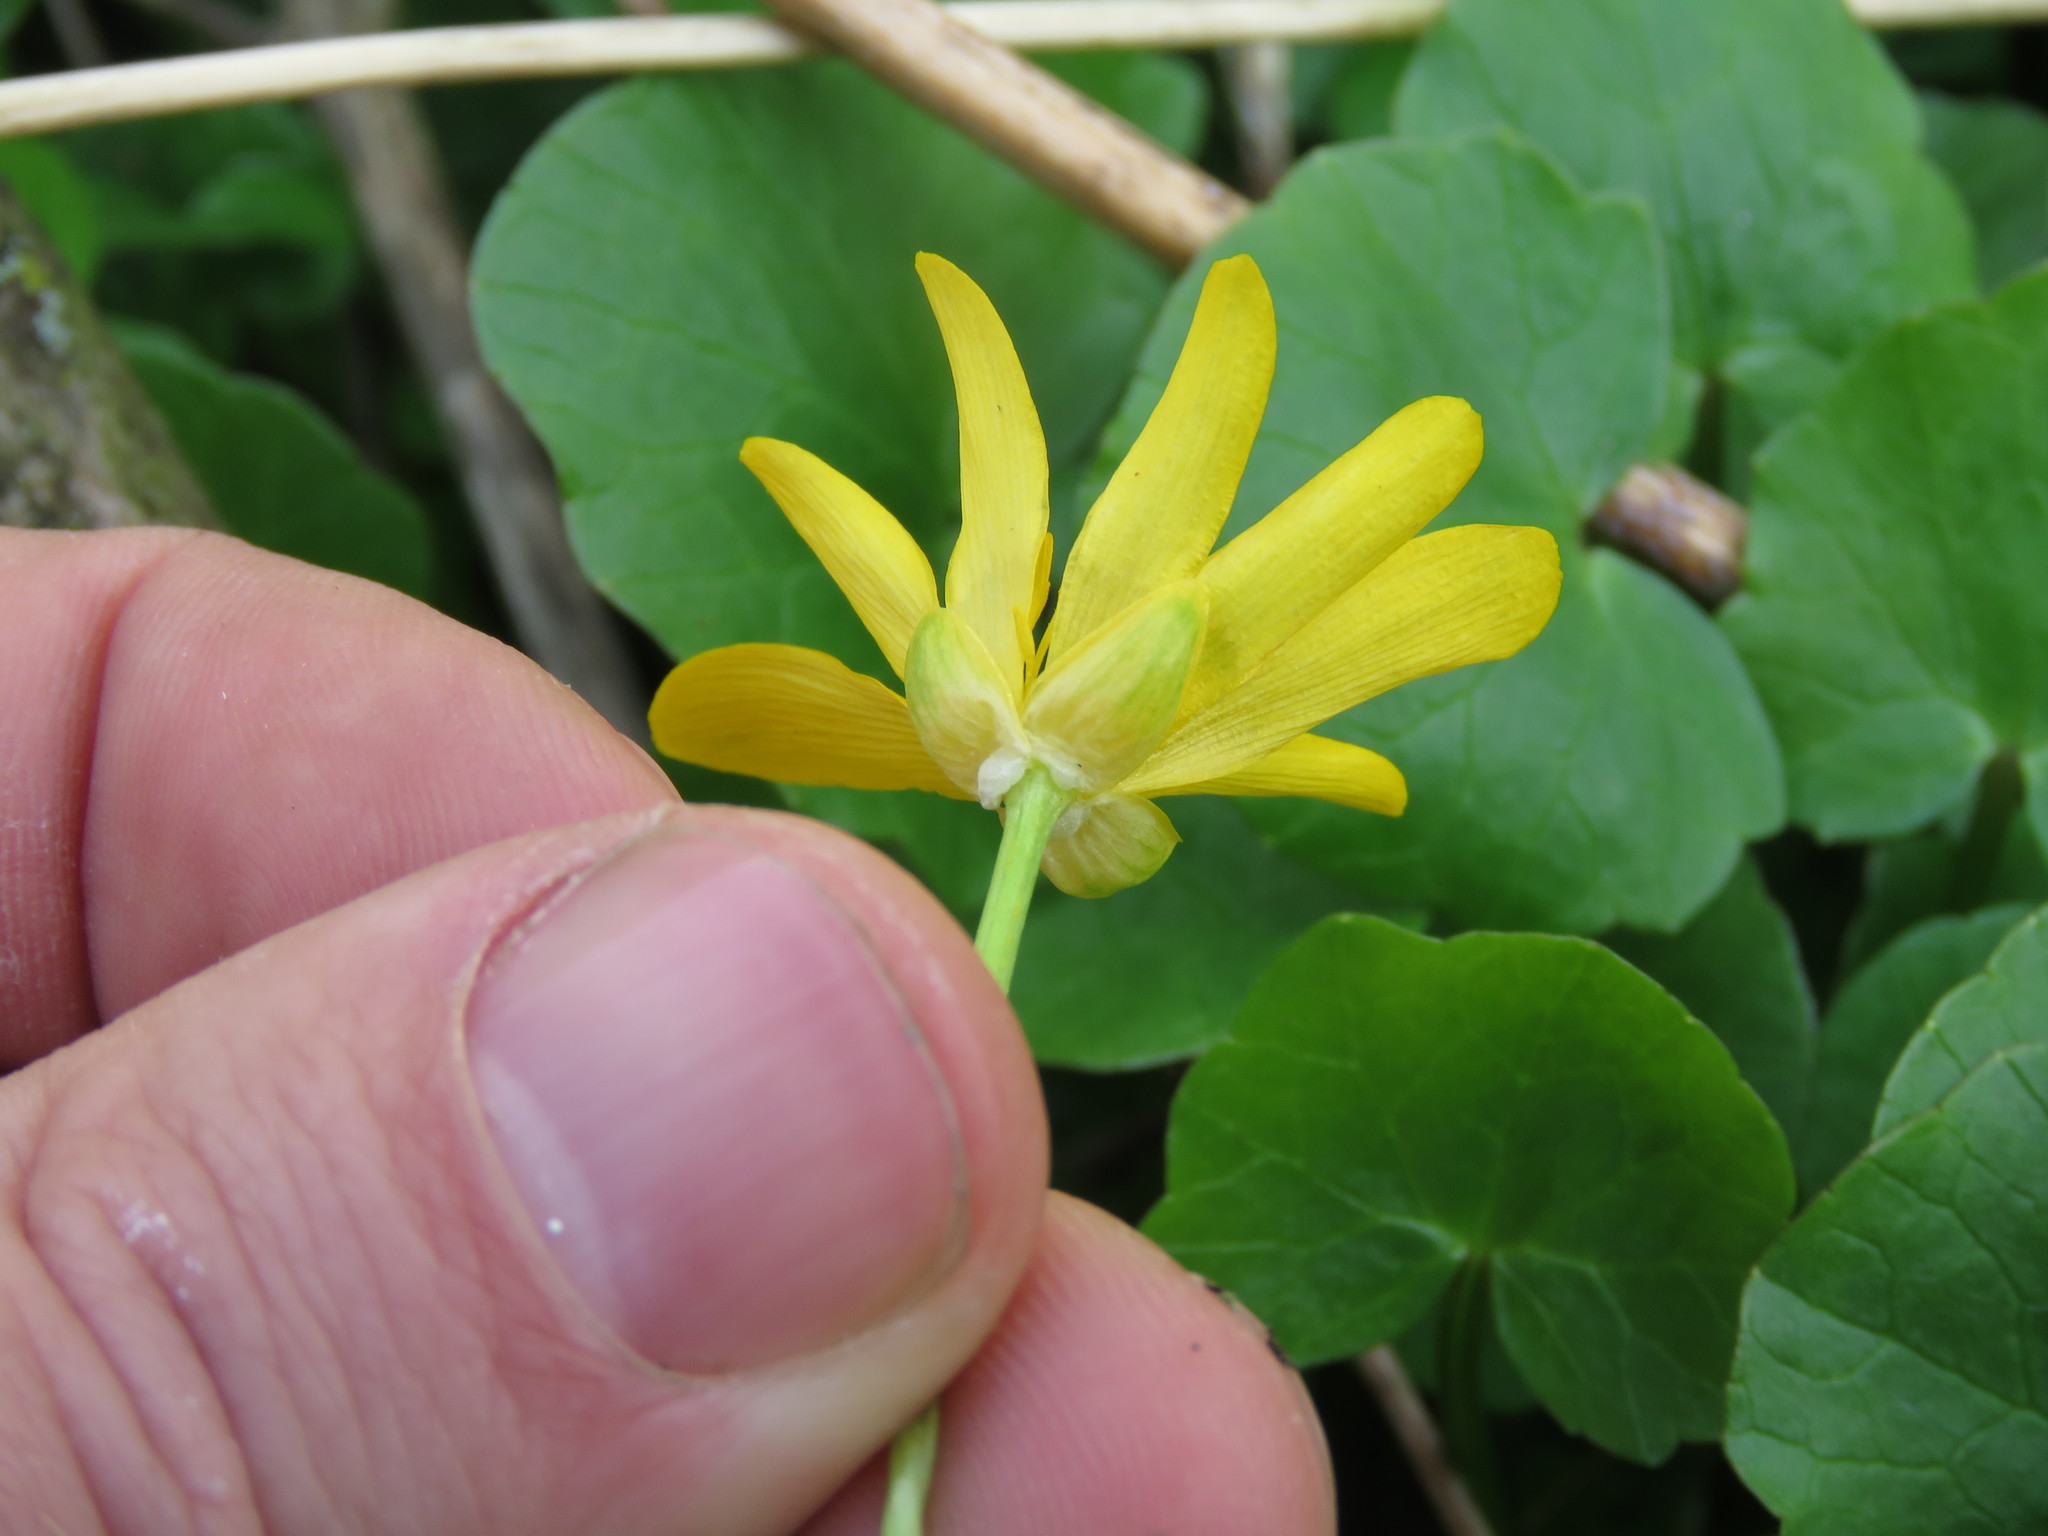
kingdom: Plantae
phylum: Tracheophyta
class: Magnoliopsida
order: Ranunculales
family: Ranunculaceae
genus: Ficaria
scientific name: Ficaria verna
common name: Lesser celandine
